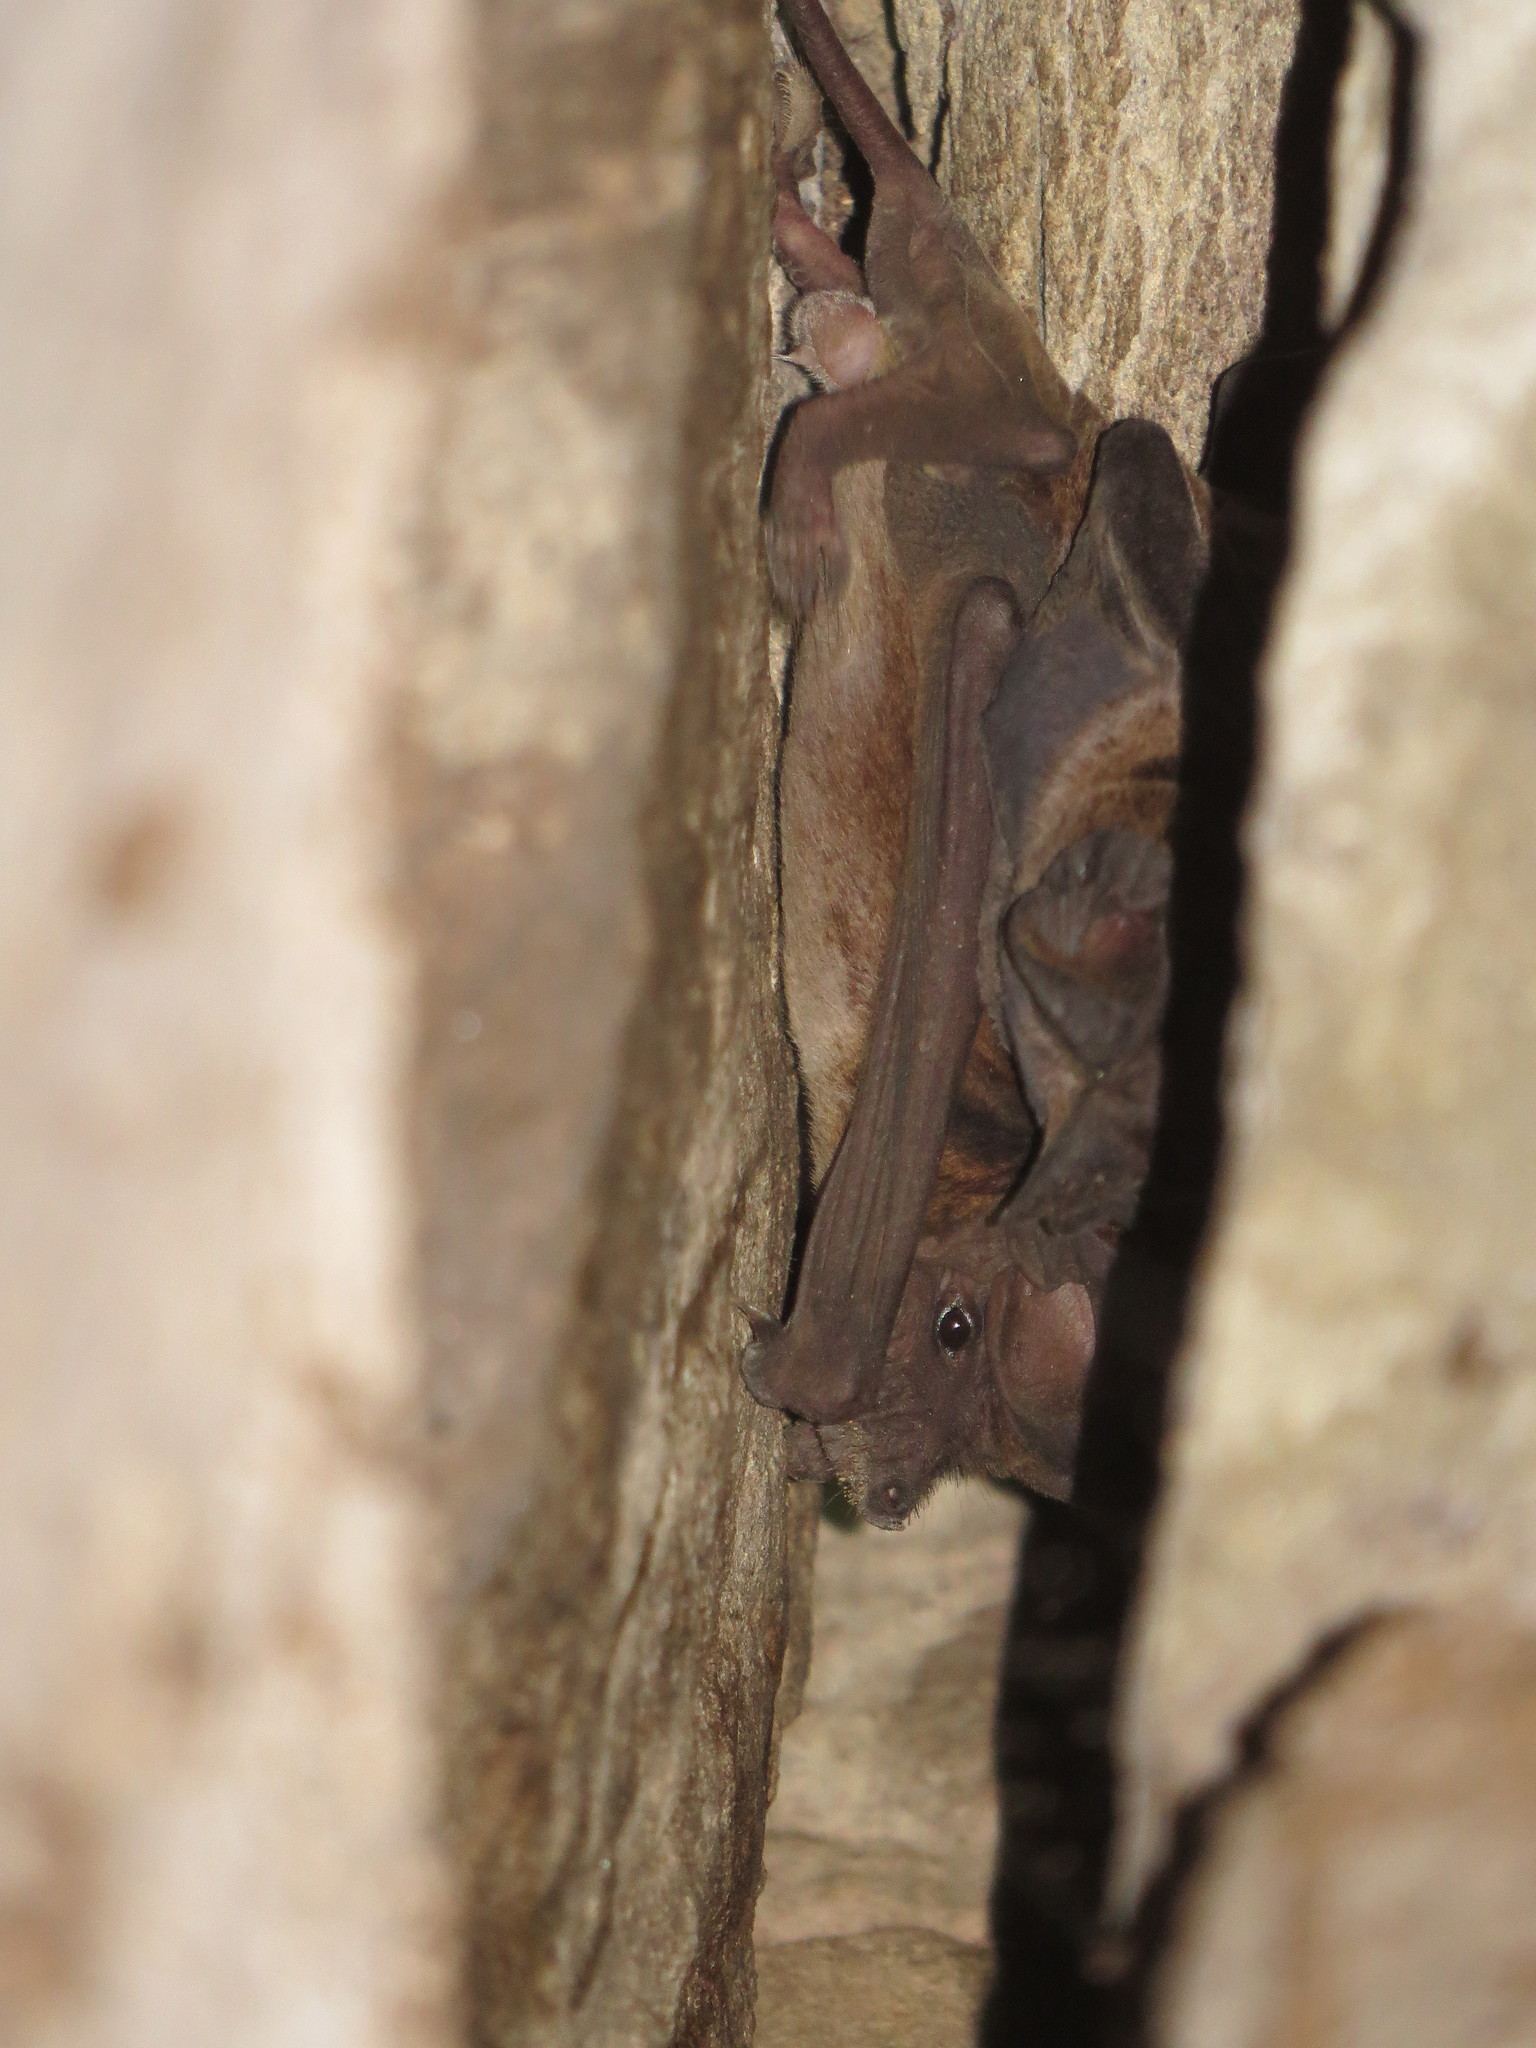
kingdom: Animalia
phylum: Chordata
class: Mammalia
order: Chiroptera
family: Molossidae
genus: Mops
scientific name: Mops
